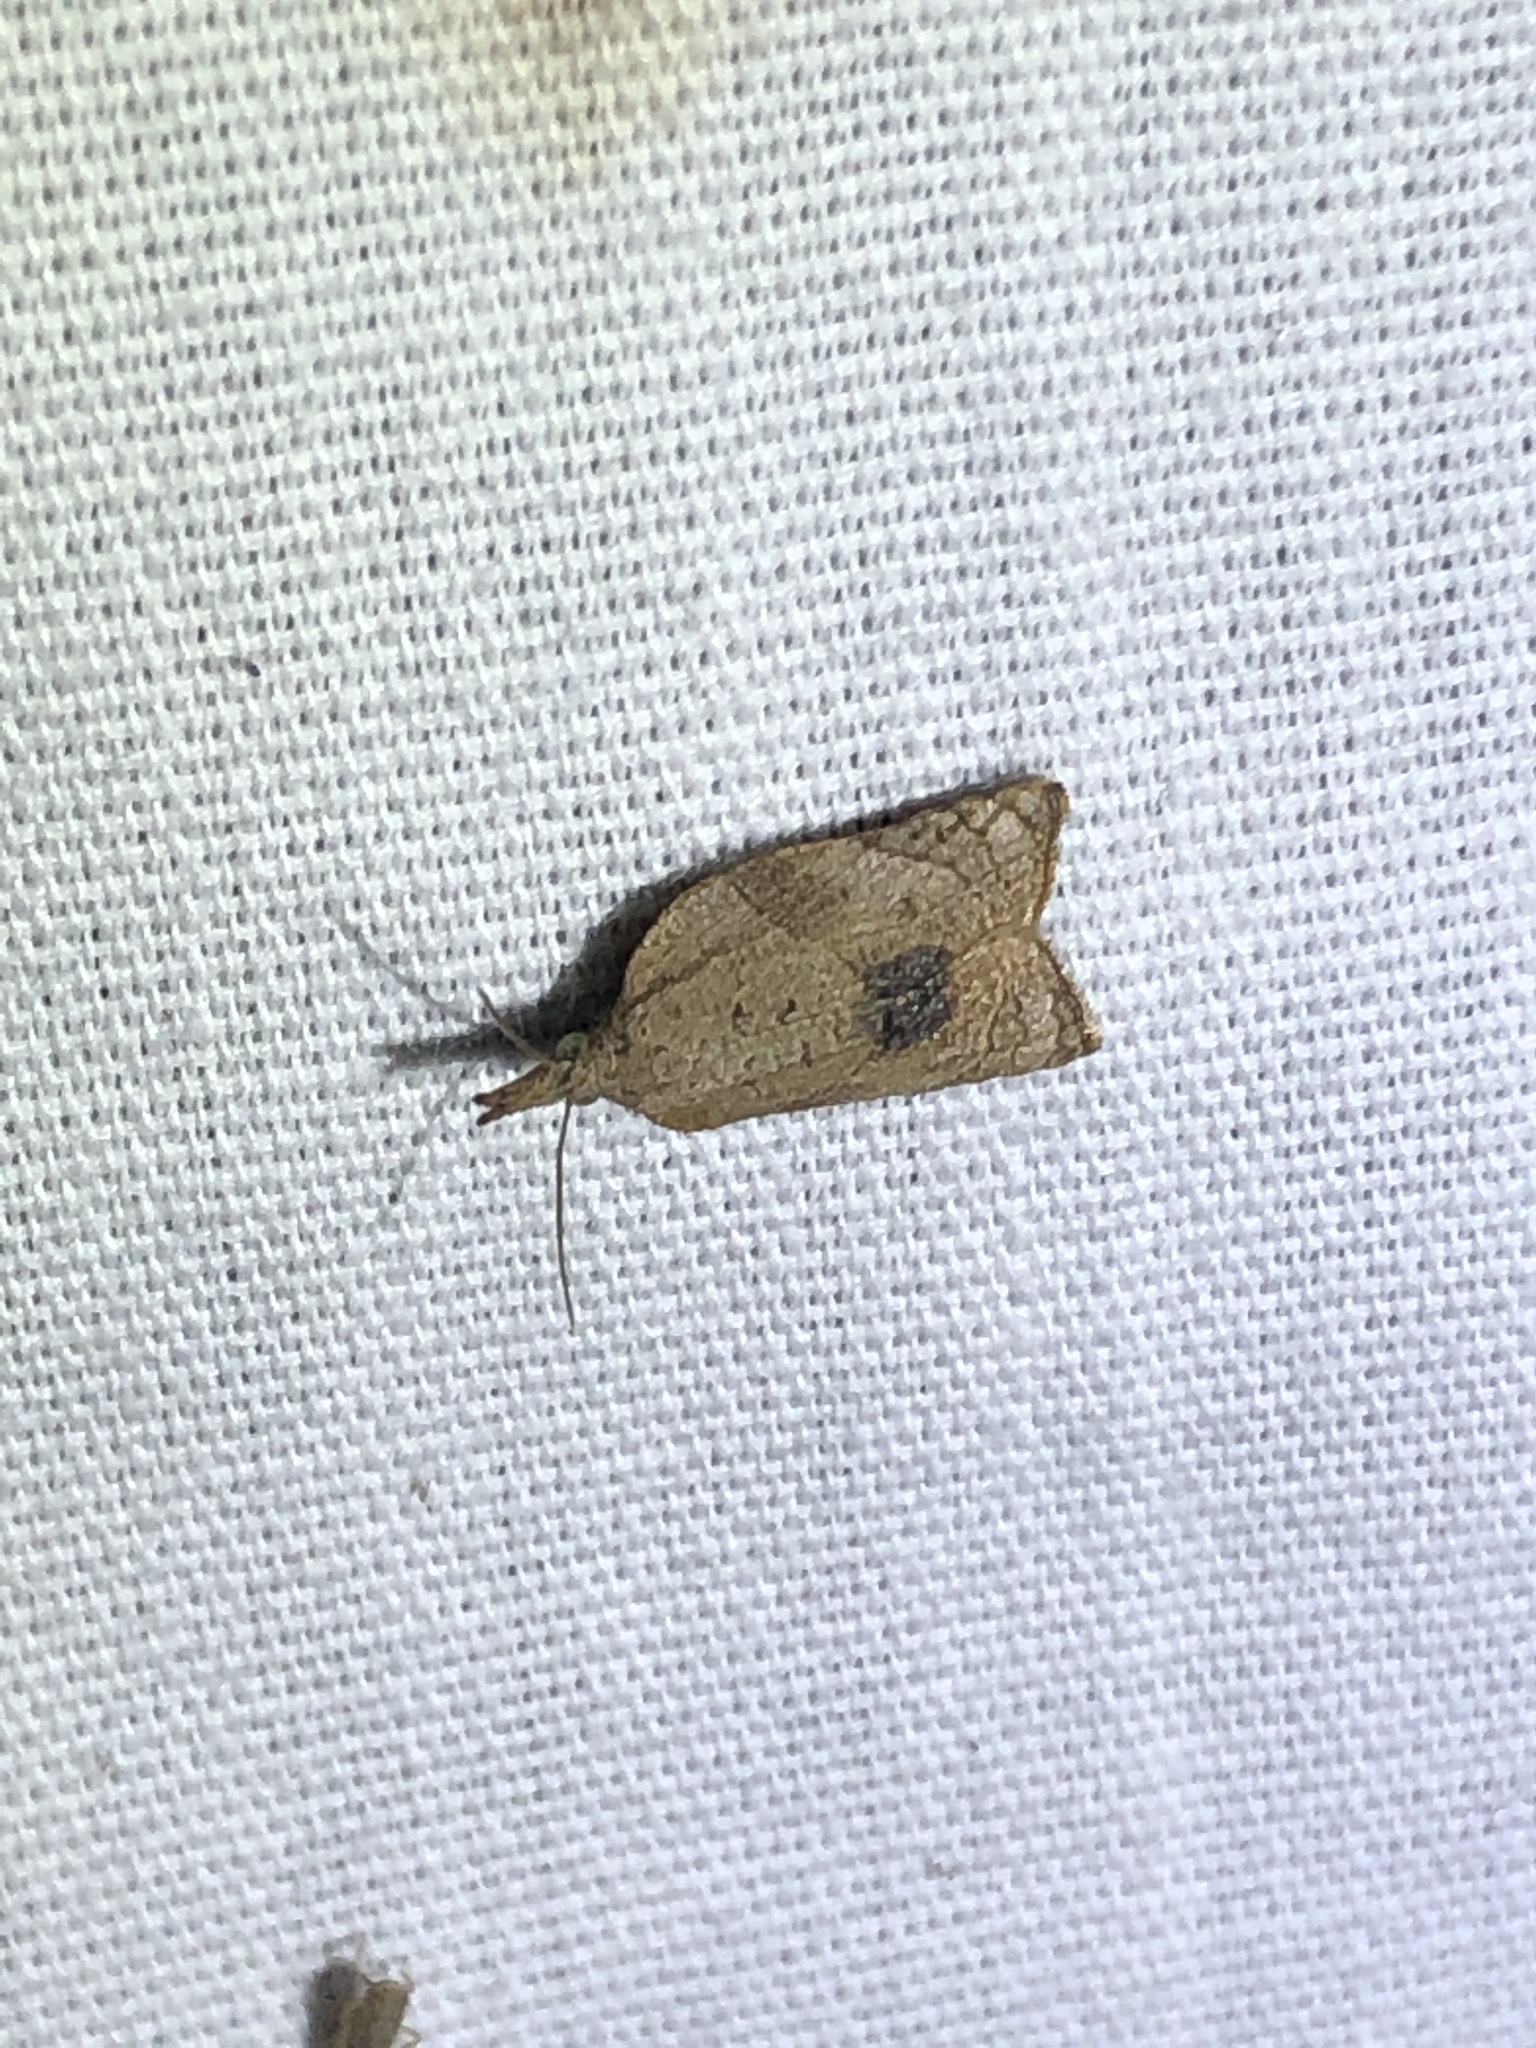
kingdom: Animalia
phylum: Arthropoda
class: Insecta
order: Lepidoptera
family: Tortricidae
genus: Platynota
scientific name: Platynota rostrana
